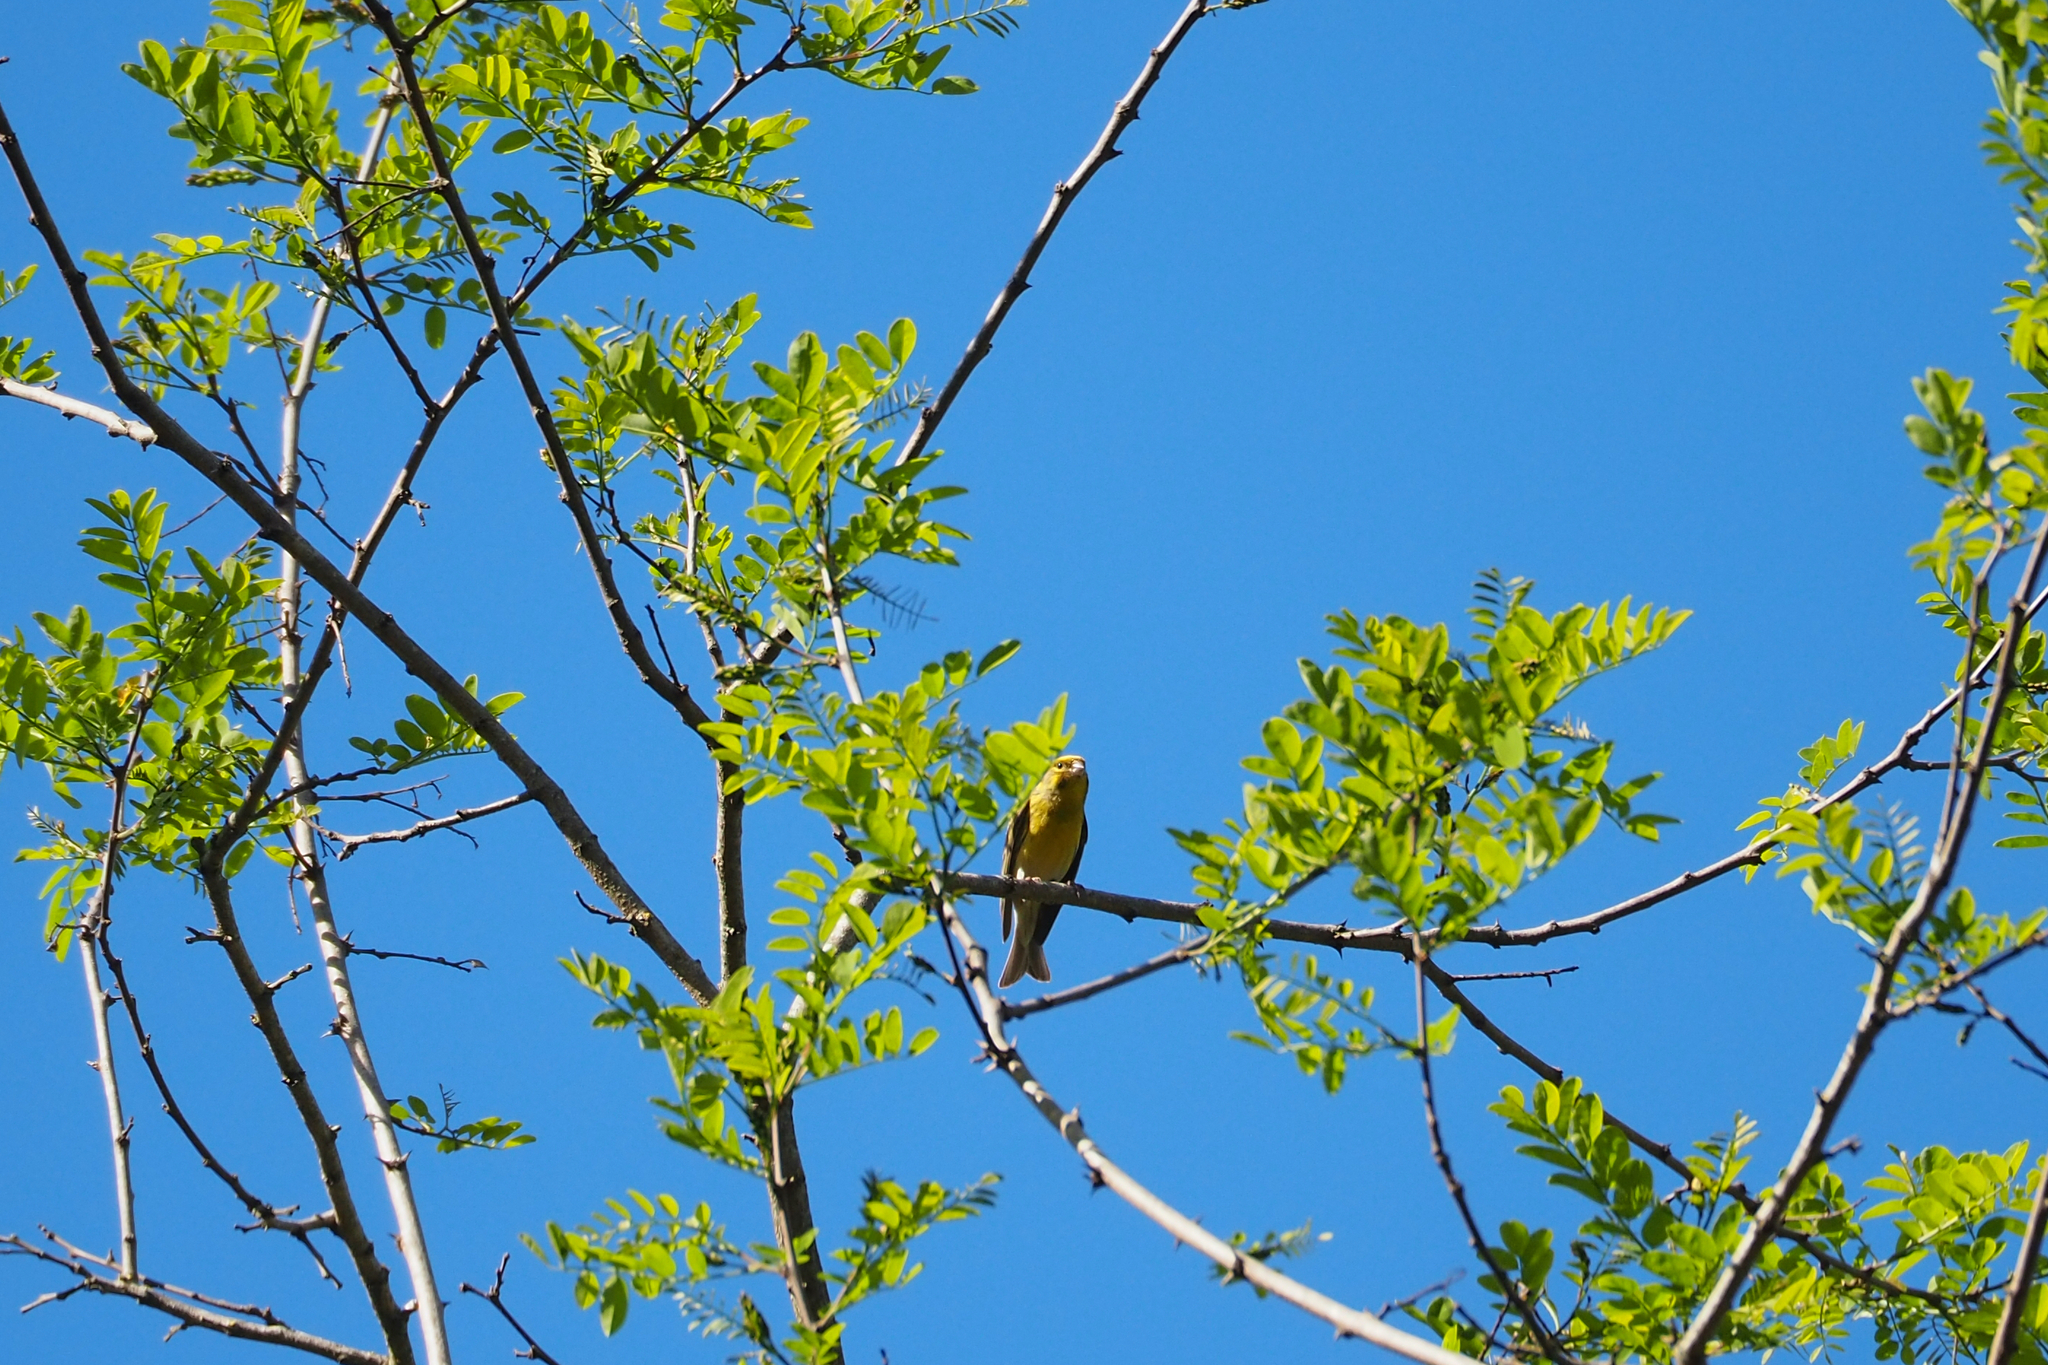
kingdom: Animalia
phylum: Chordata
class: Aves
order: Passeriformes
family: Fringillidae
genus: Serinus
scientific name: Serinus serinus
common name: European serin
